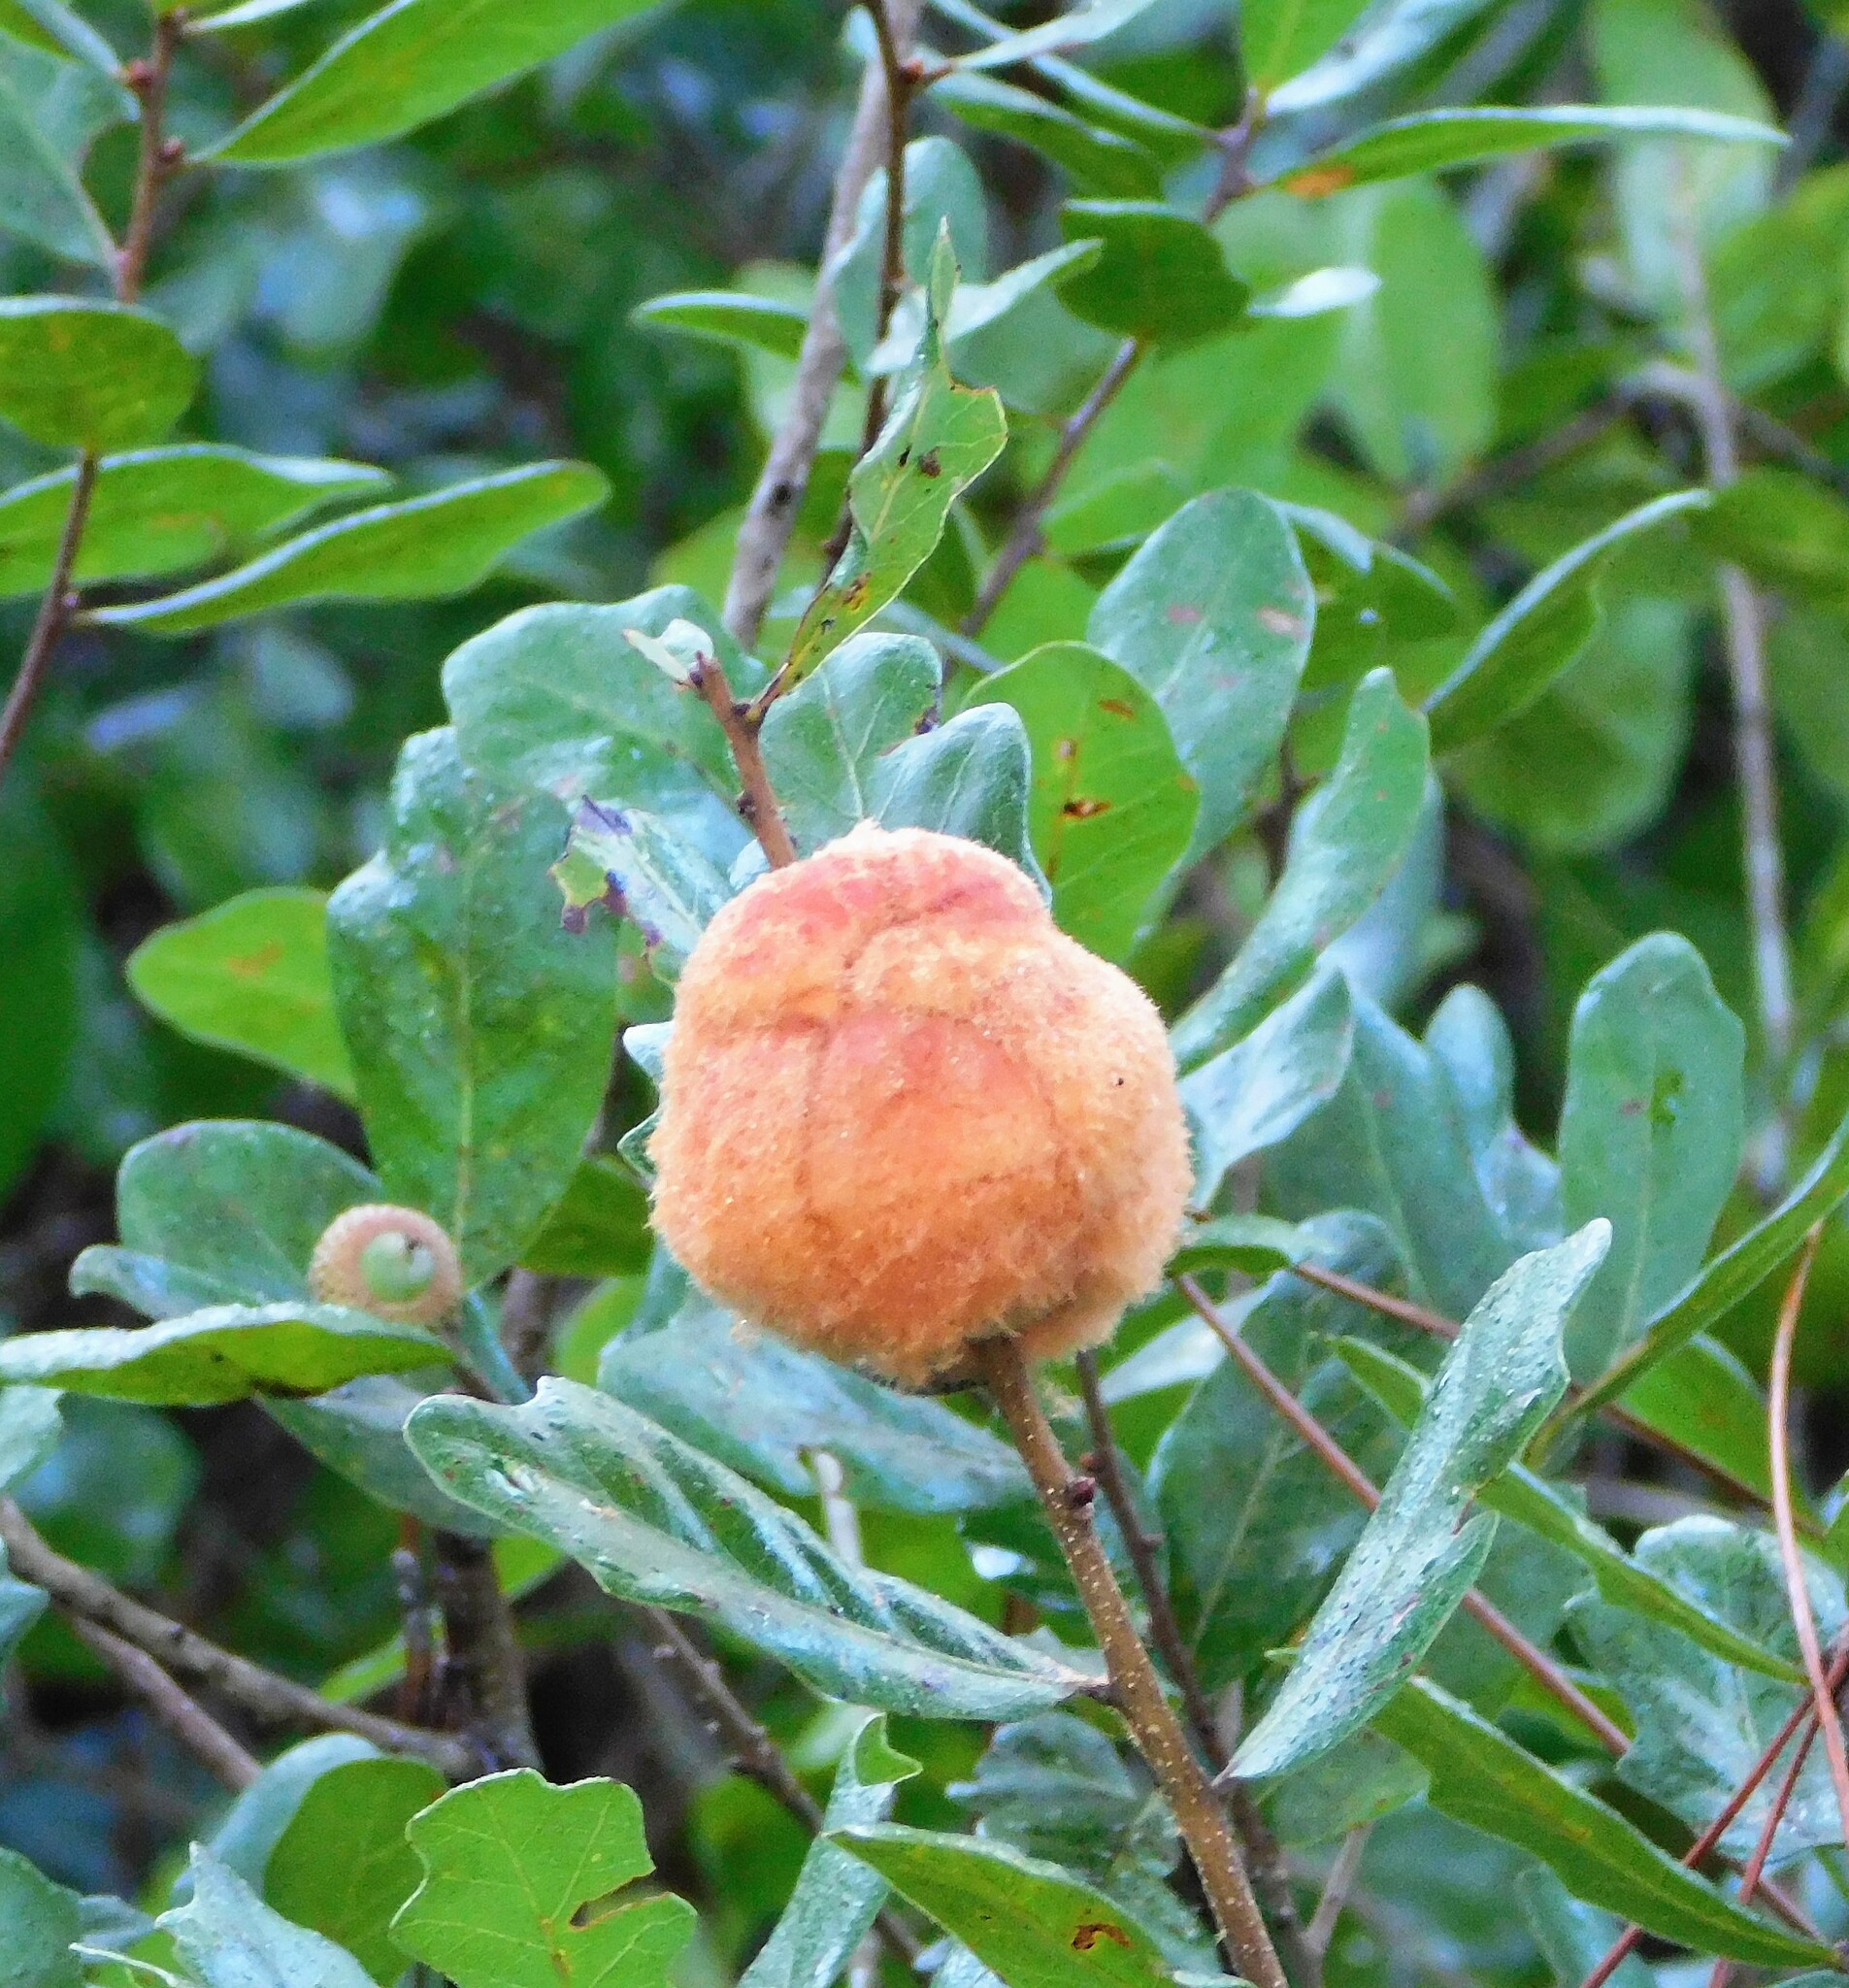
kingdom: Animalia
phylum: Arthropoda
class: Insecta
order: Hymenoptera
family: Cynipidae
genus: Disholcaspis
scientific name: Disholcaspis
